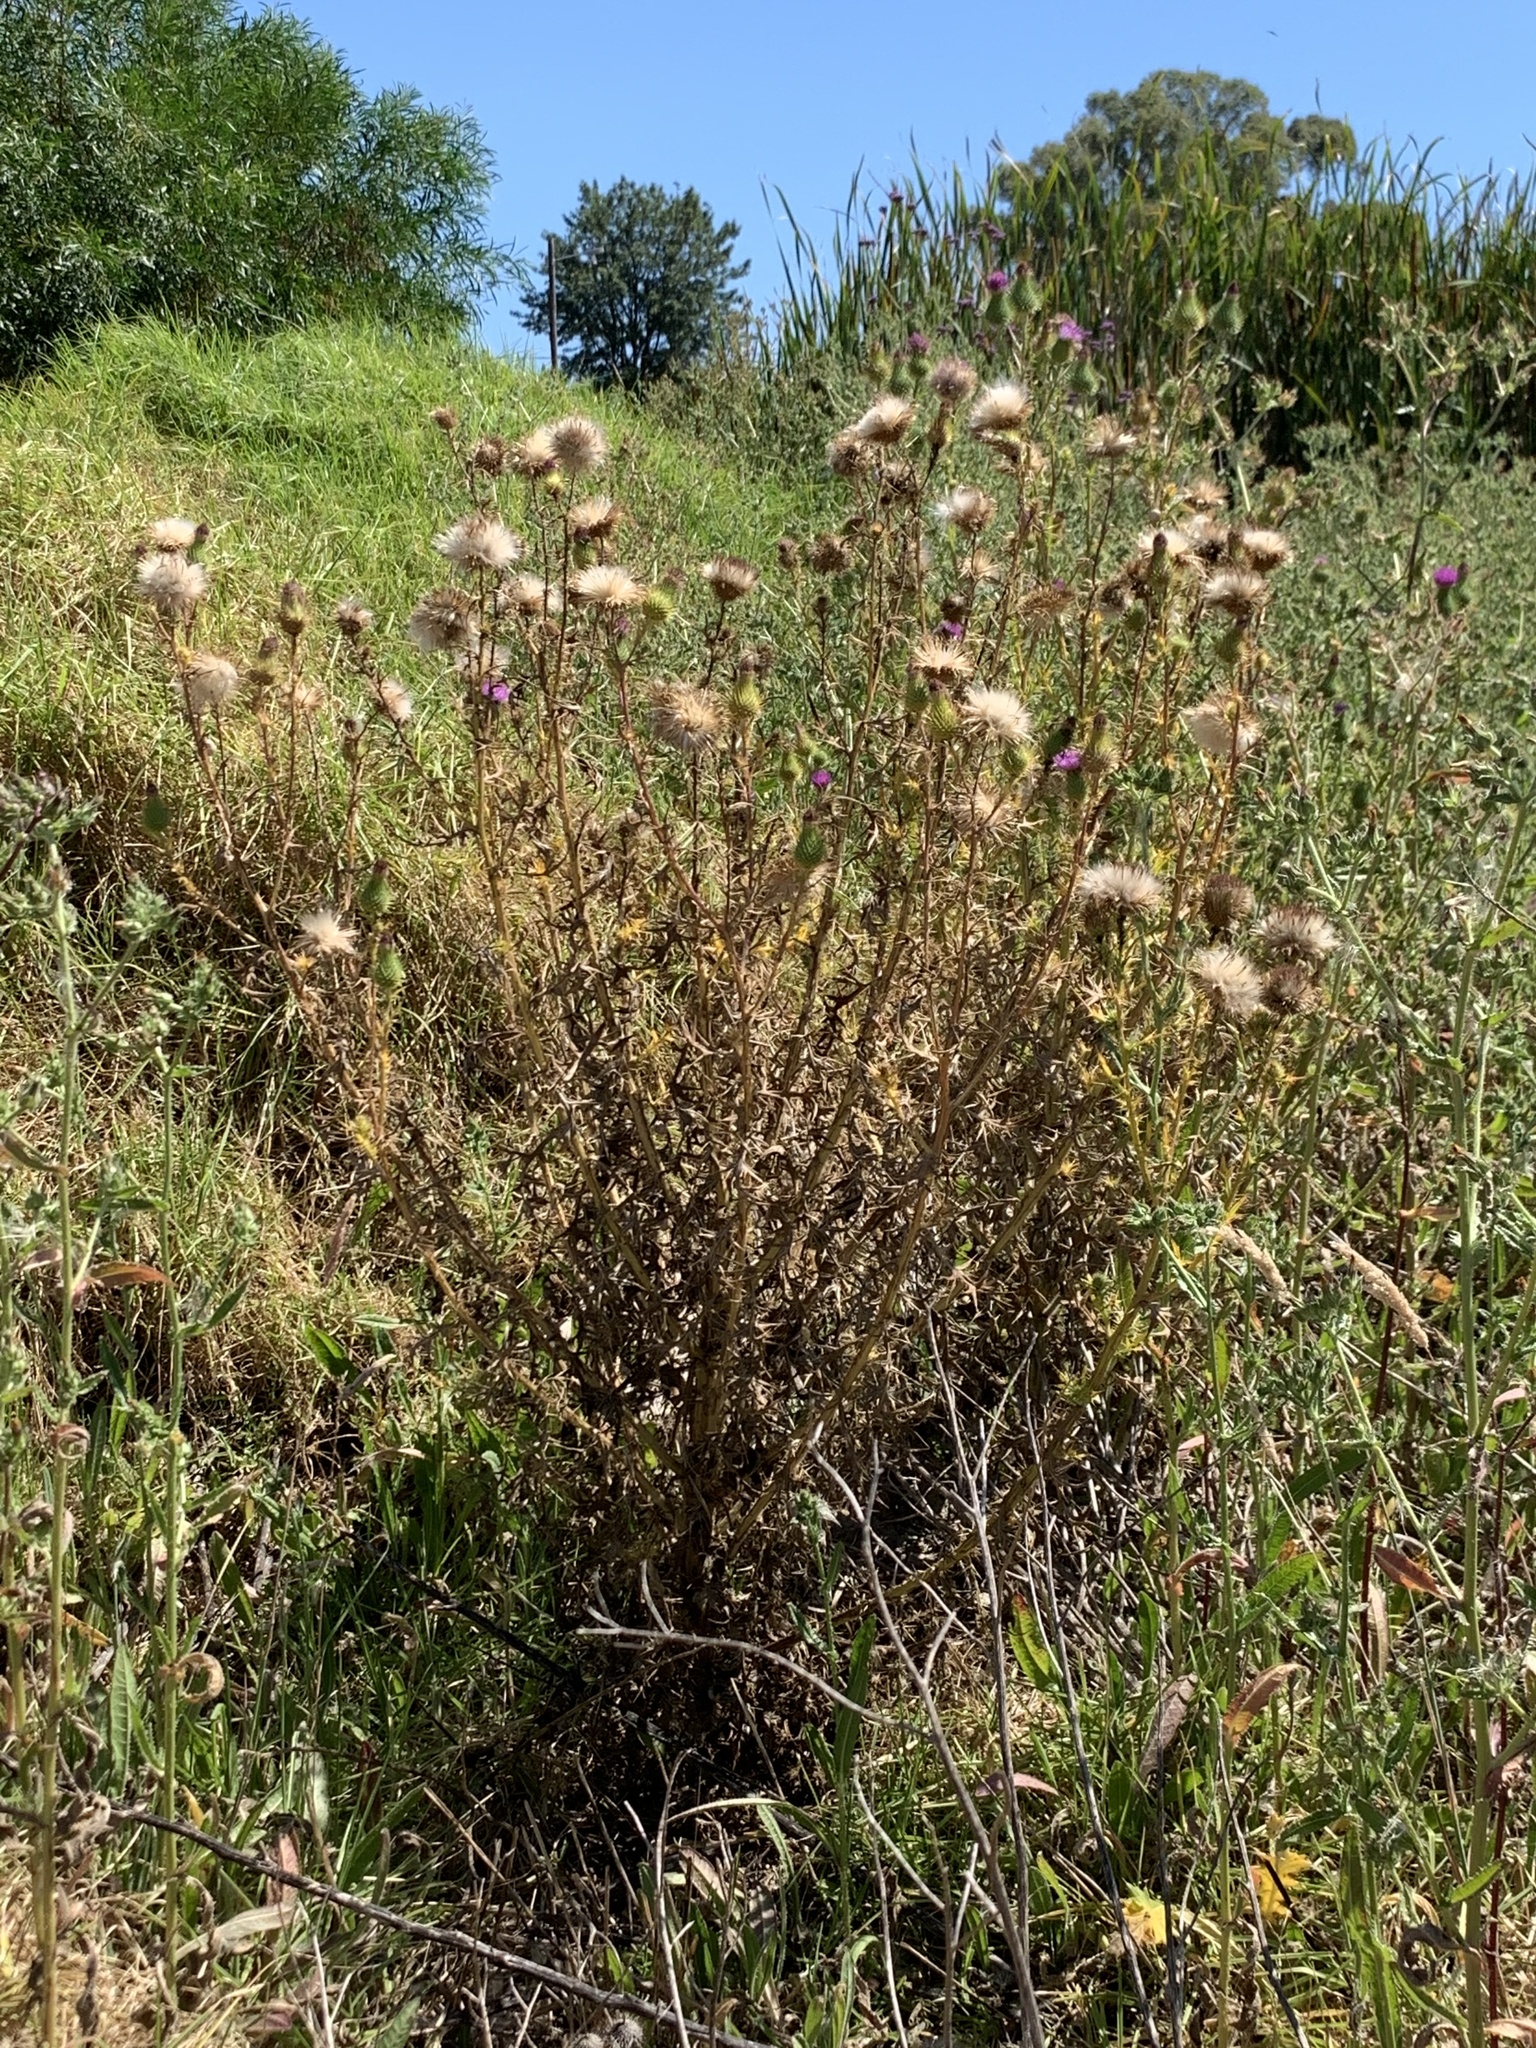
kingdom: Plantae
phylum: Tracheophyta
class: Magnoliopsida
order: Asterales
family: Asteraceae
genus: Cirsium
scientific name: Cirsium vulgare
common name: Bull thistle
